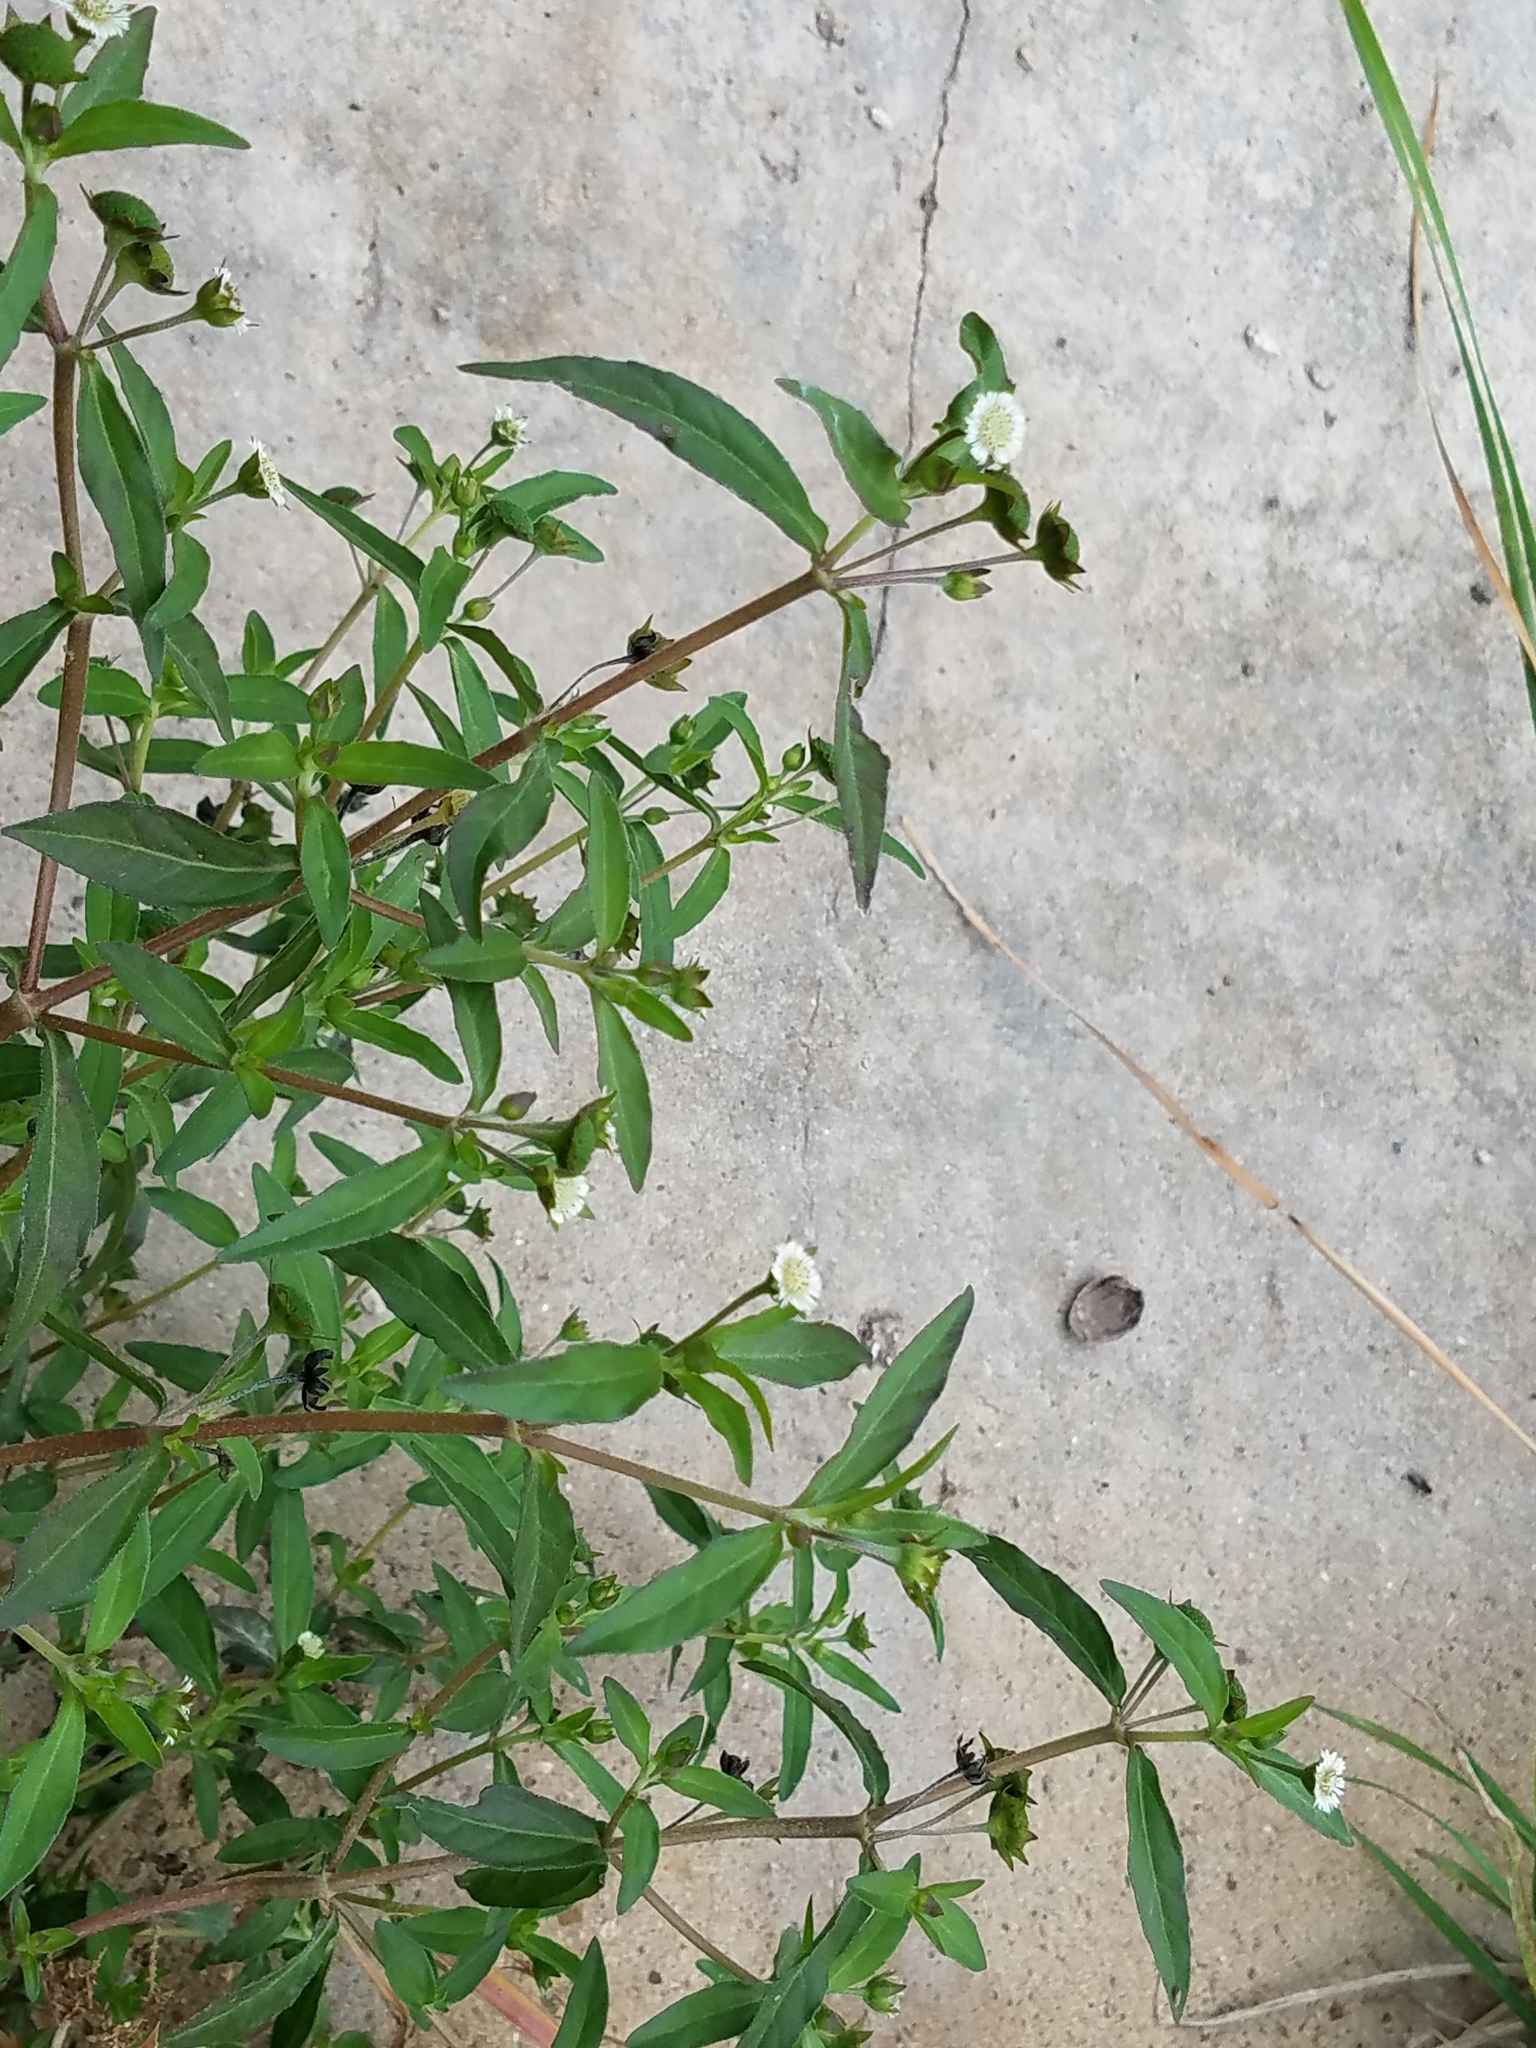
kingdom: Plantae
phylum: Tracheophyta
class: Magnoliopsida
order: Asterales
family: Asteraceae
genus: Eclipta
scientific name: Eclipta prostrata
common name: False daisy
